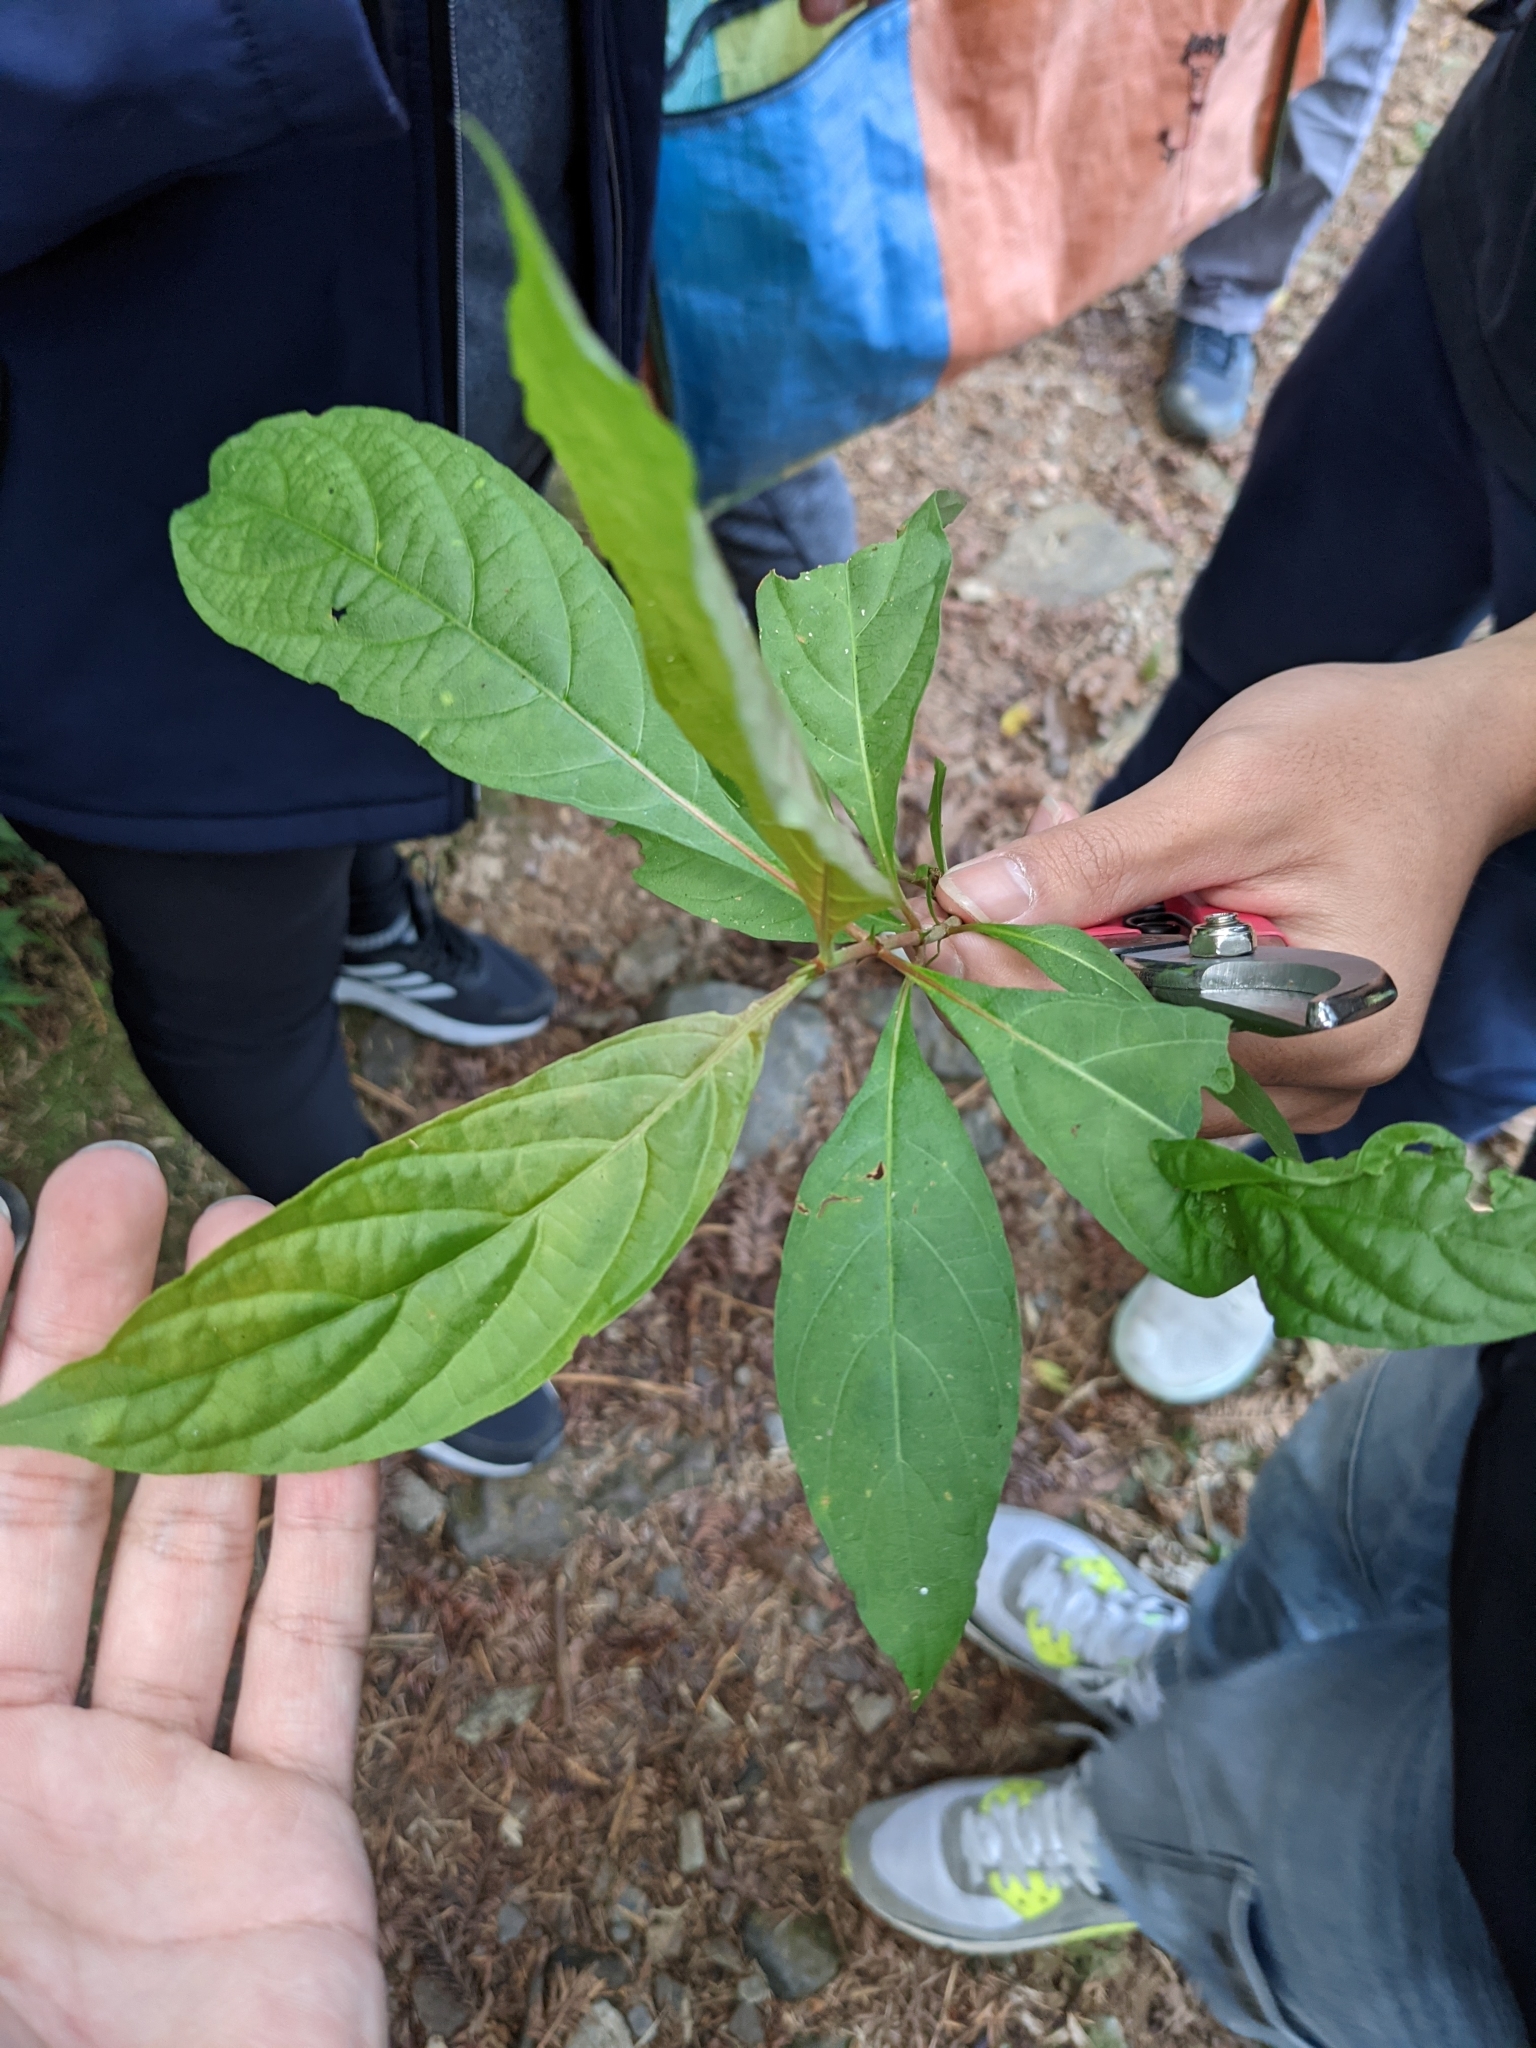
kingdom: Plantae
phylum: Tracheophyta
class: Magnoliopsida
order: Gentianales
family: Rubiaceae
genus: Wendlandia
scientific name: Wendlandia formosana
